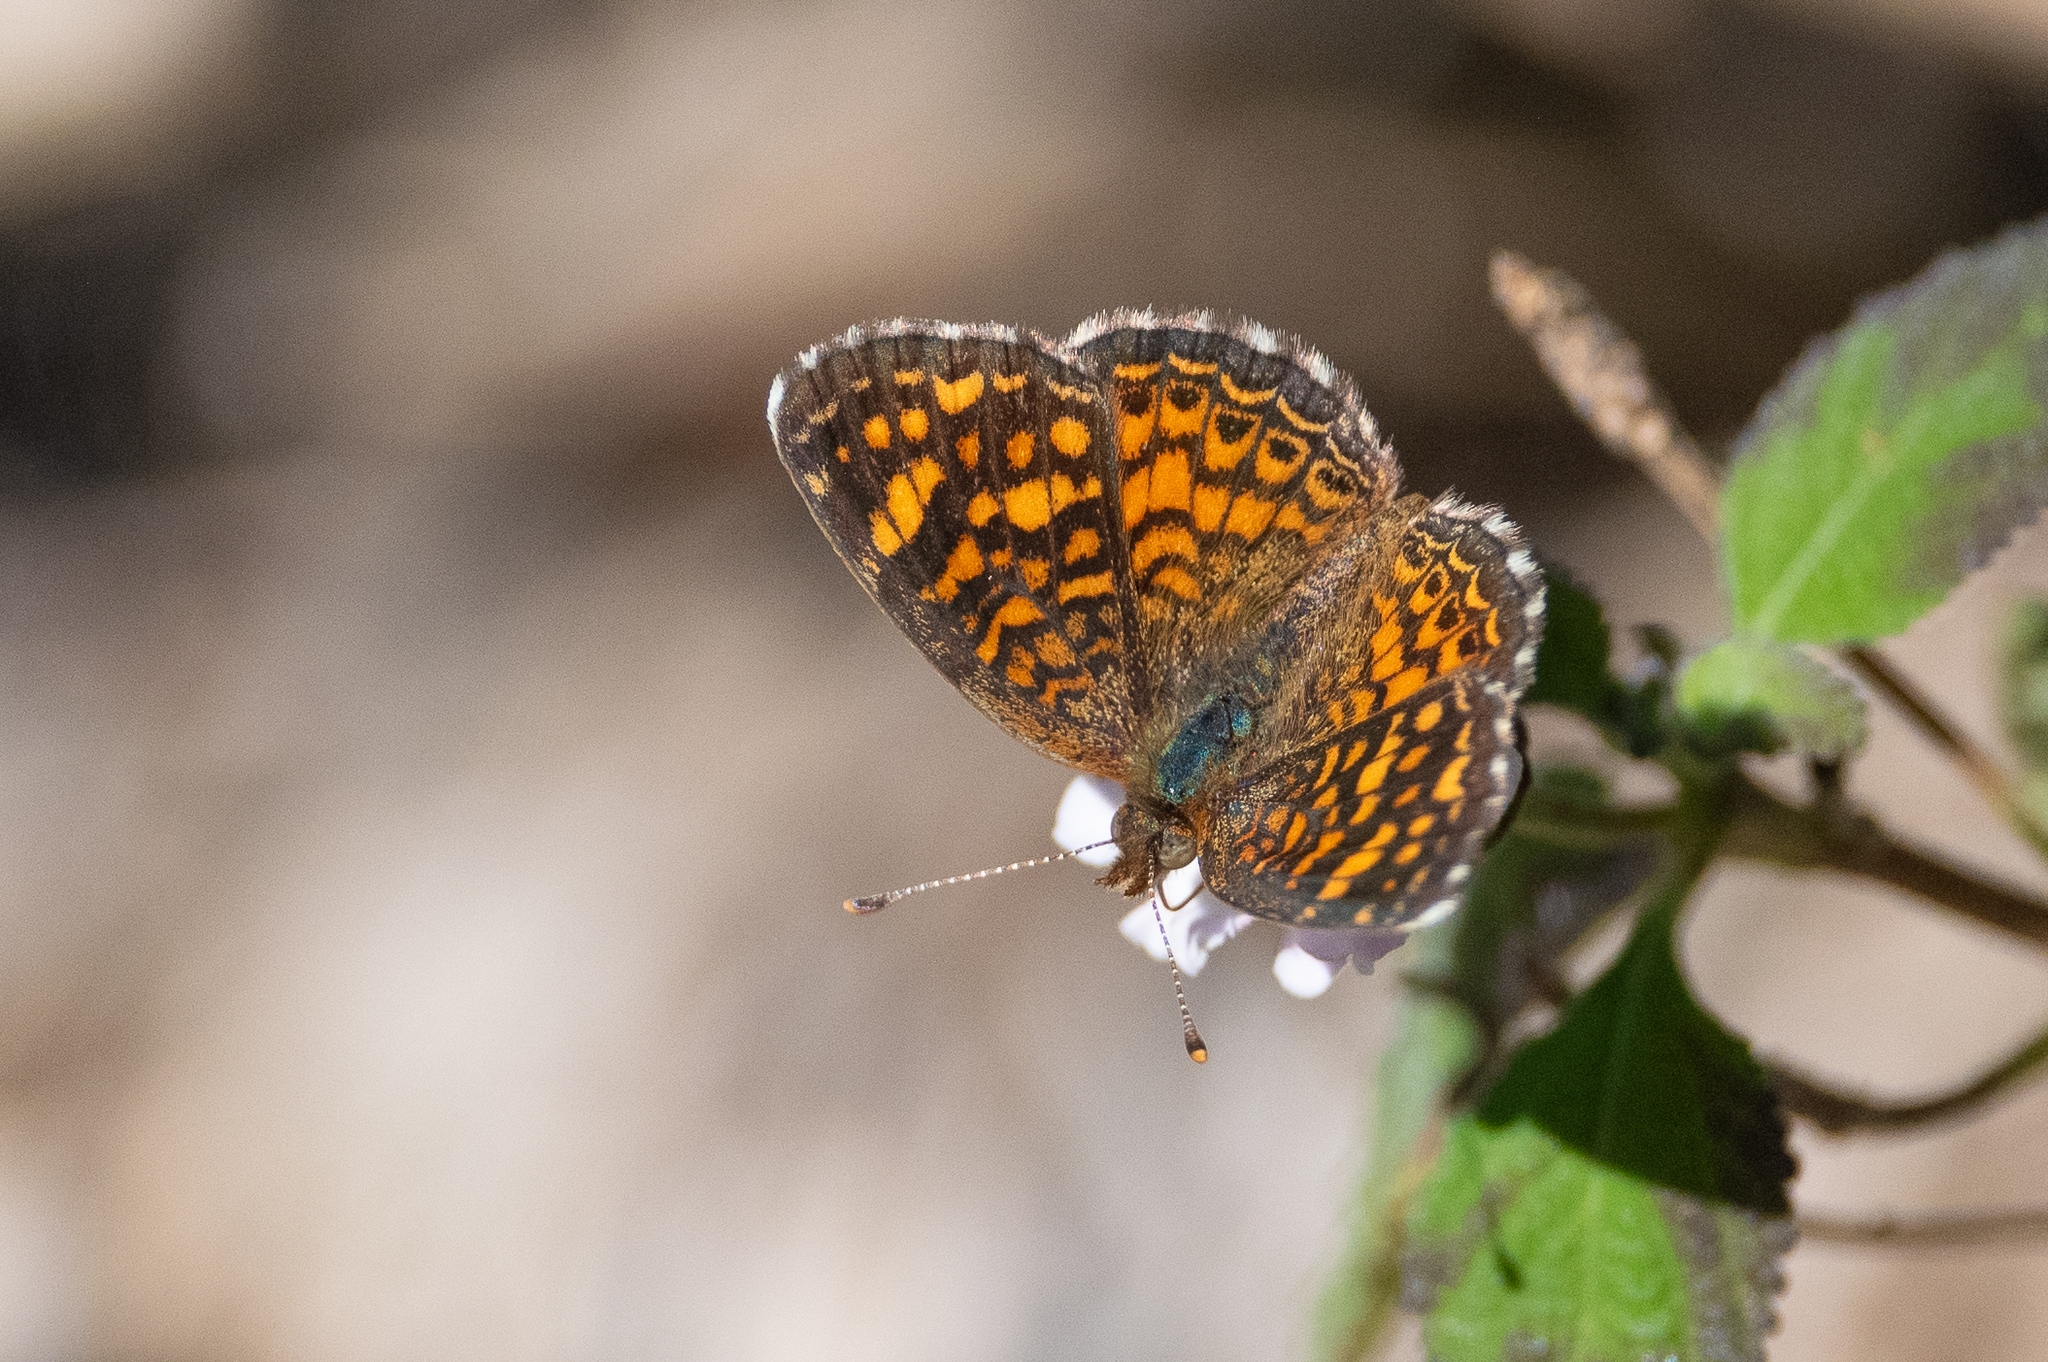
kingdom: Animalia
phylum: Arthropoda
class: Insecta
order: Lepidoptera
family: Nymphalidae
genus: Phyciodes
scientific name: Phyciodes vesta
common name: Vesta crescent
